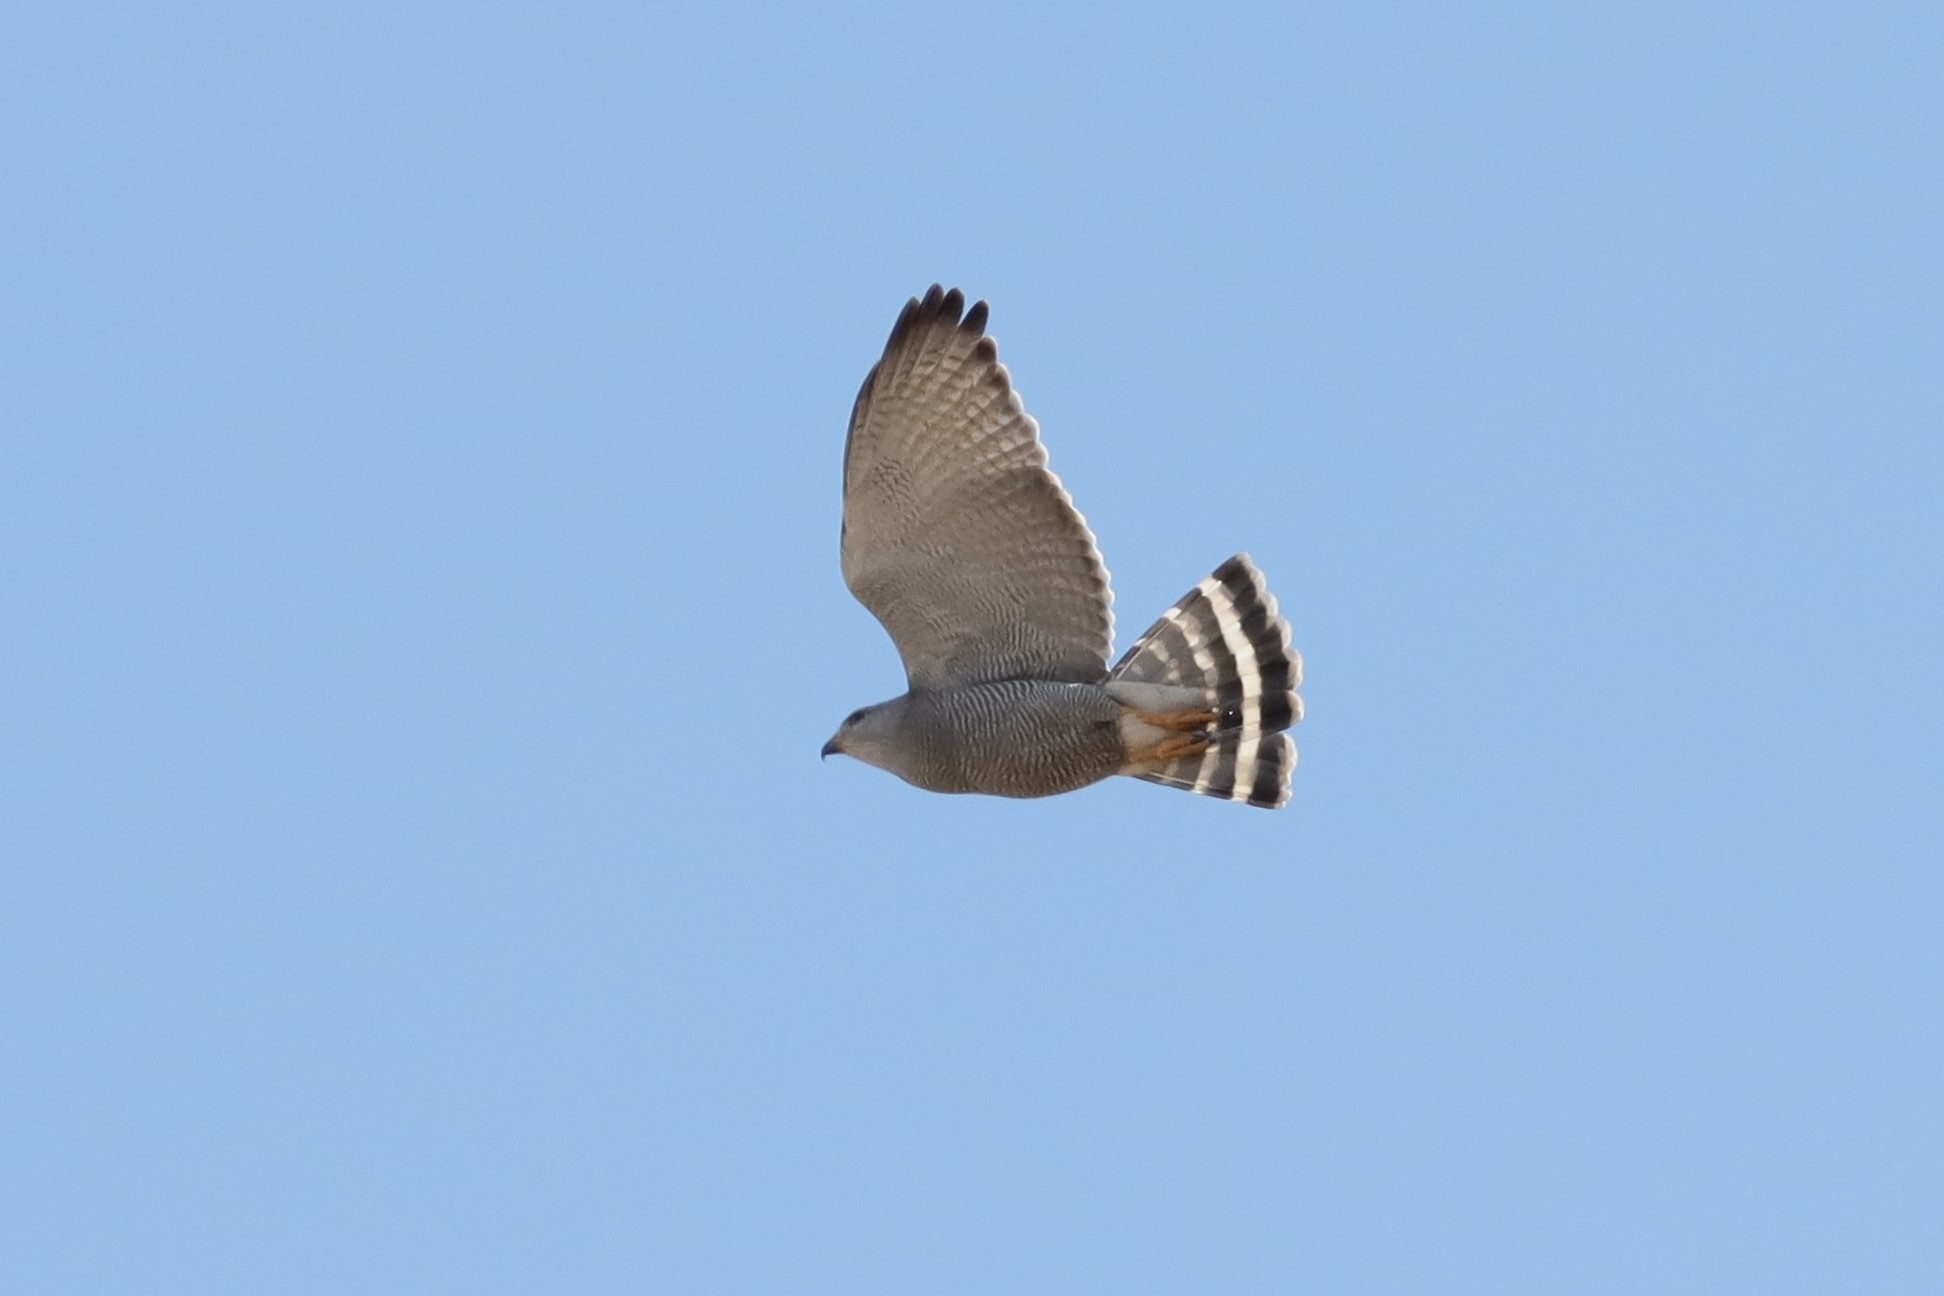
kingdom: Animalia
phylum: Chordata
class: Aves
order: Accipitriformes
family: Accipitridae
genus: Buteo
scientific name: Buteo nitidus
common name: Grey-lined hawk
